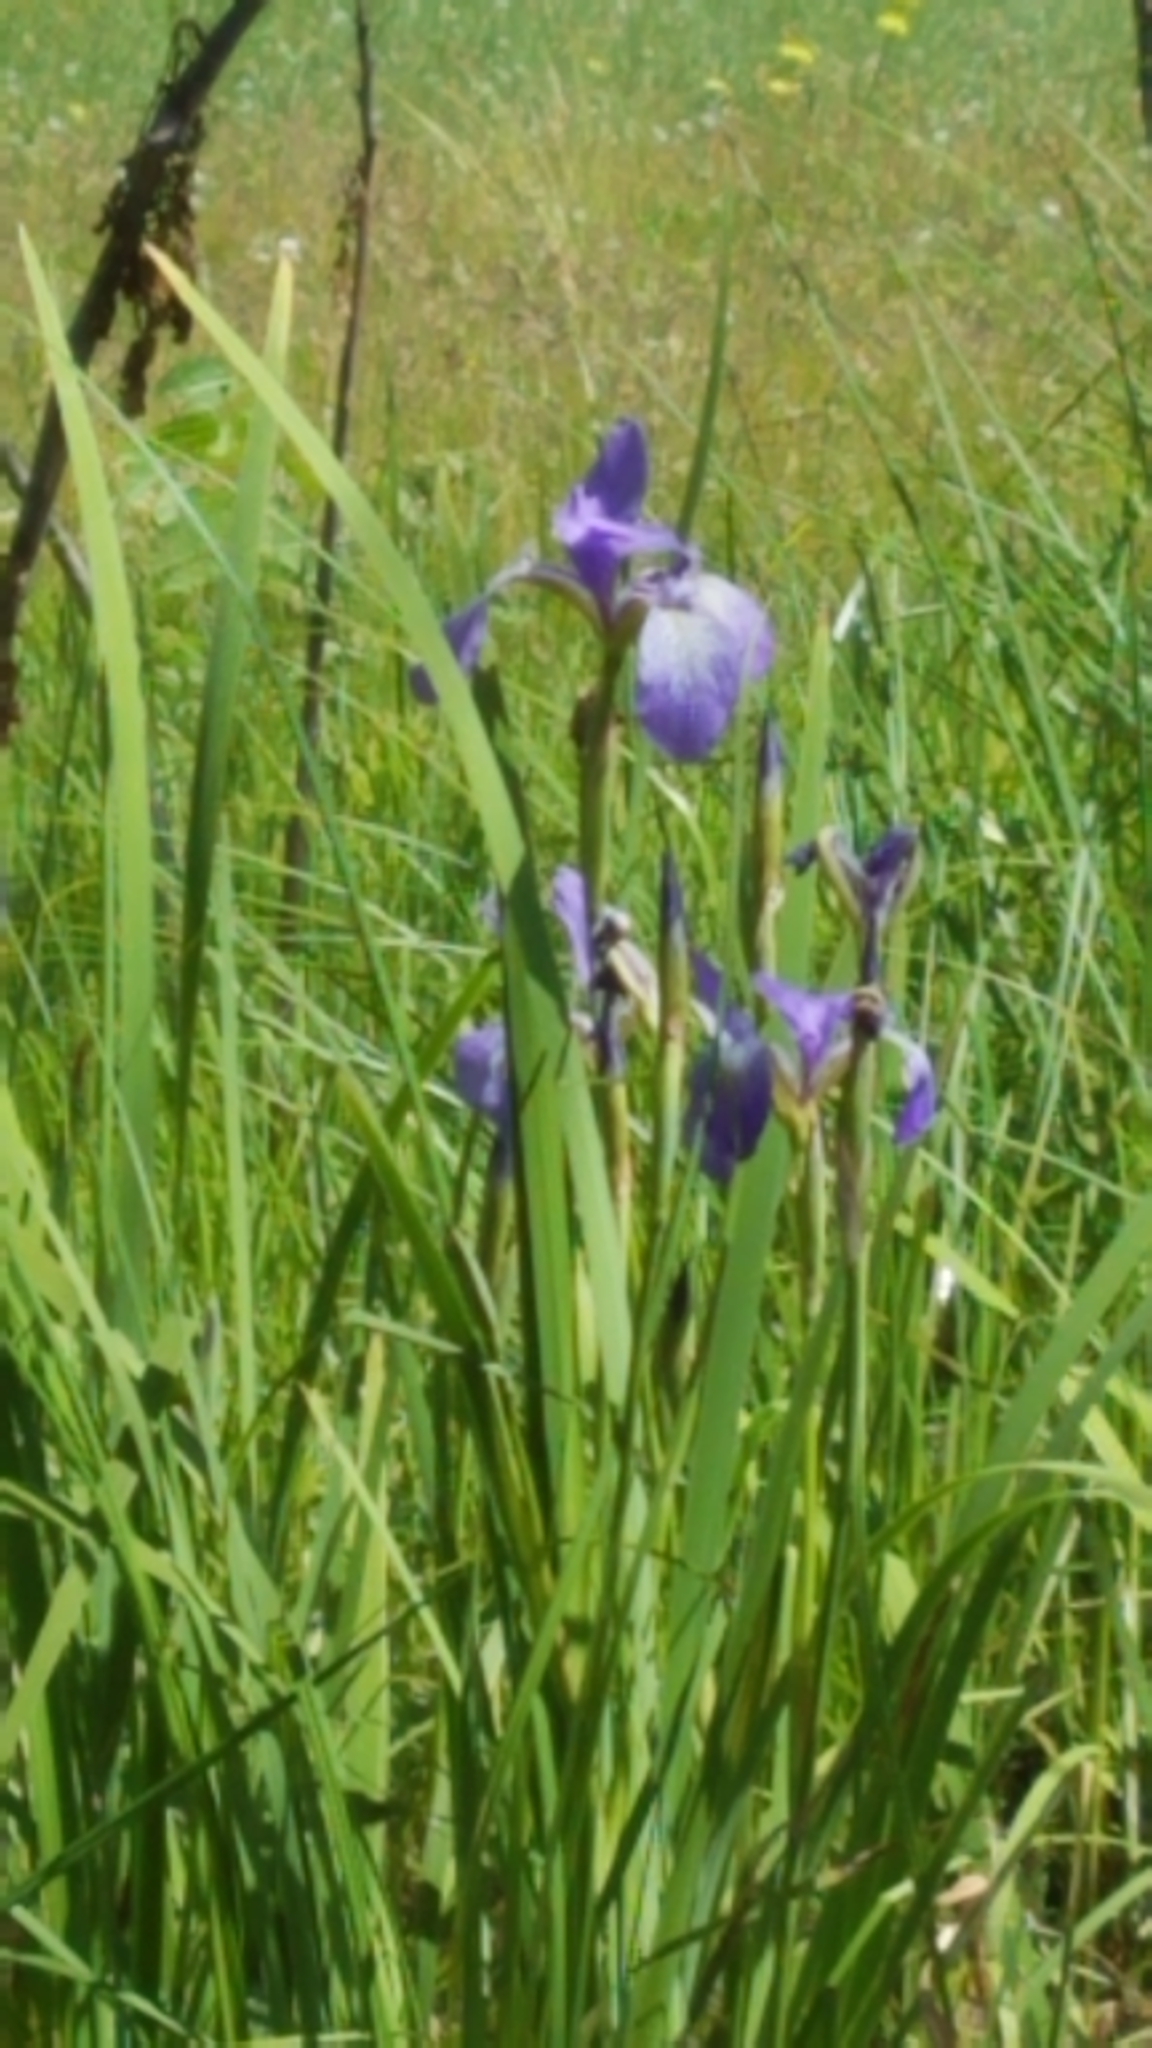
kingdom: Plantae
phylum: Tracheophyta
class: Liliopsida
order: Asparagales
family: Iridaceae
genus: Iris
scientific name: Iris versicolor
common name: Purple iris
